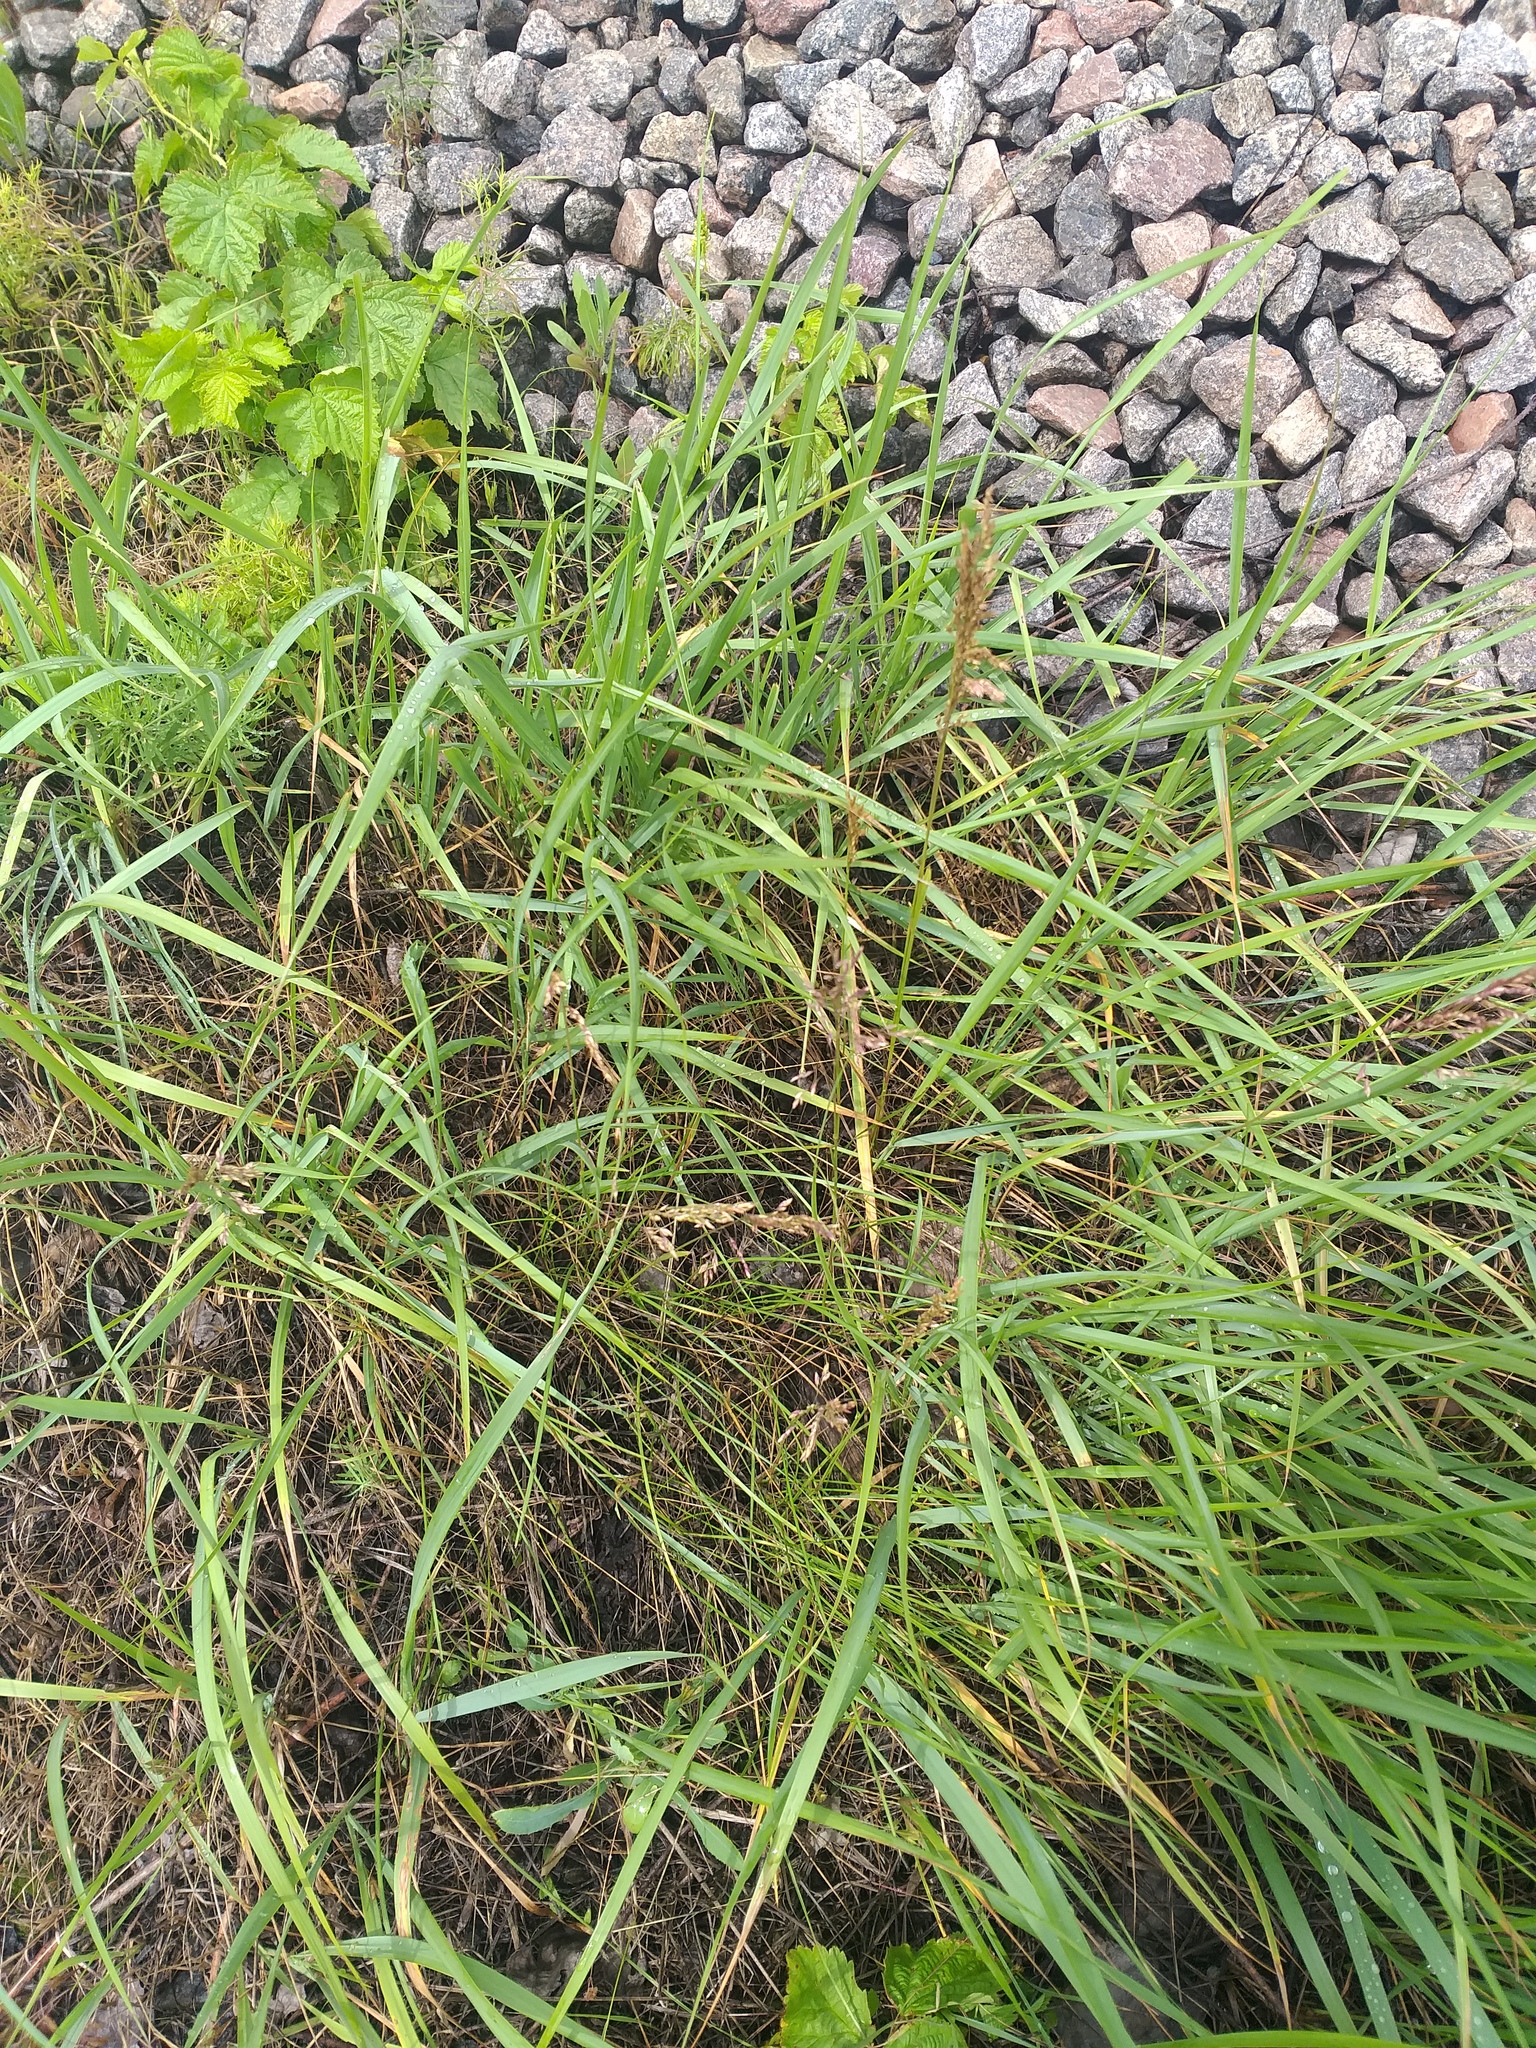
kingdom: Plantae
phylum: Tracheophyta
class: Liliopsida
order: Poales
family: Poaceae
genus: Poa
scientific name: Poa angustifolia
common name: Narrow-leaved meadow-grass
